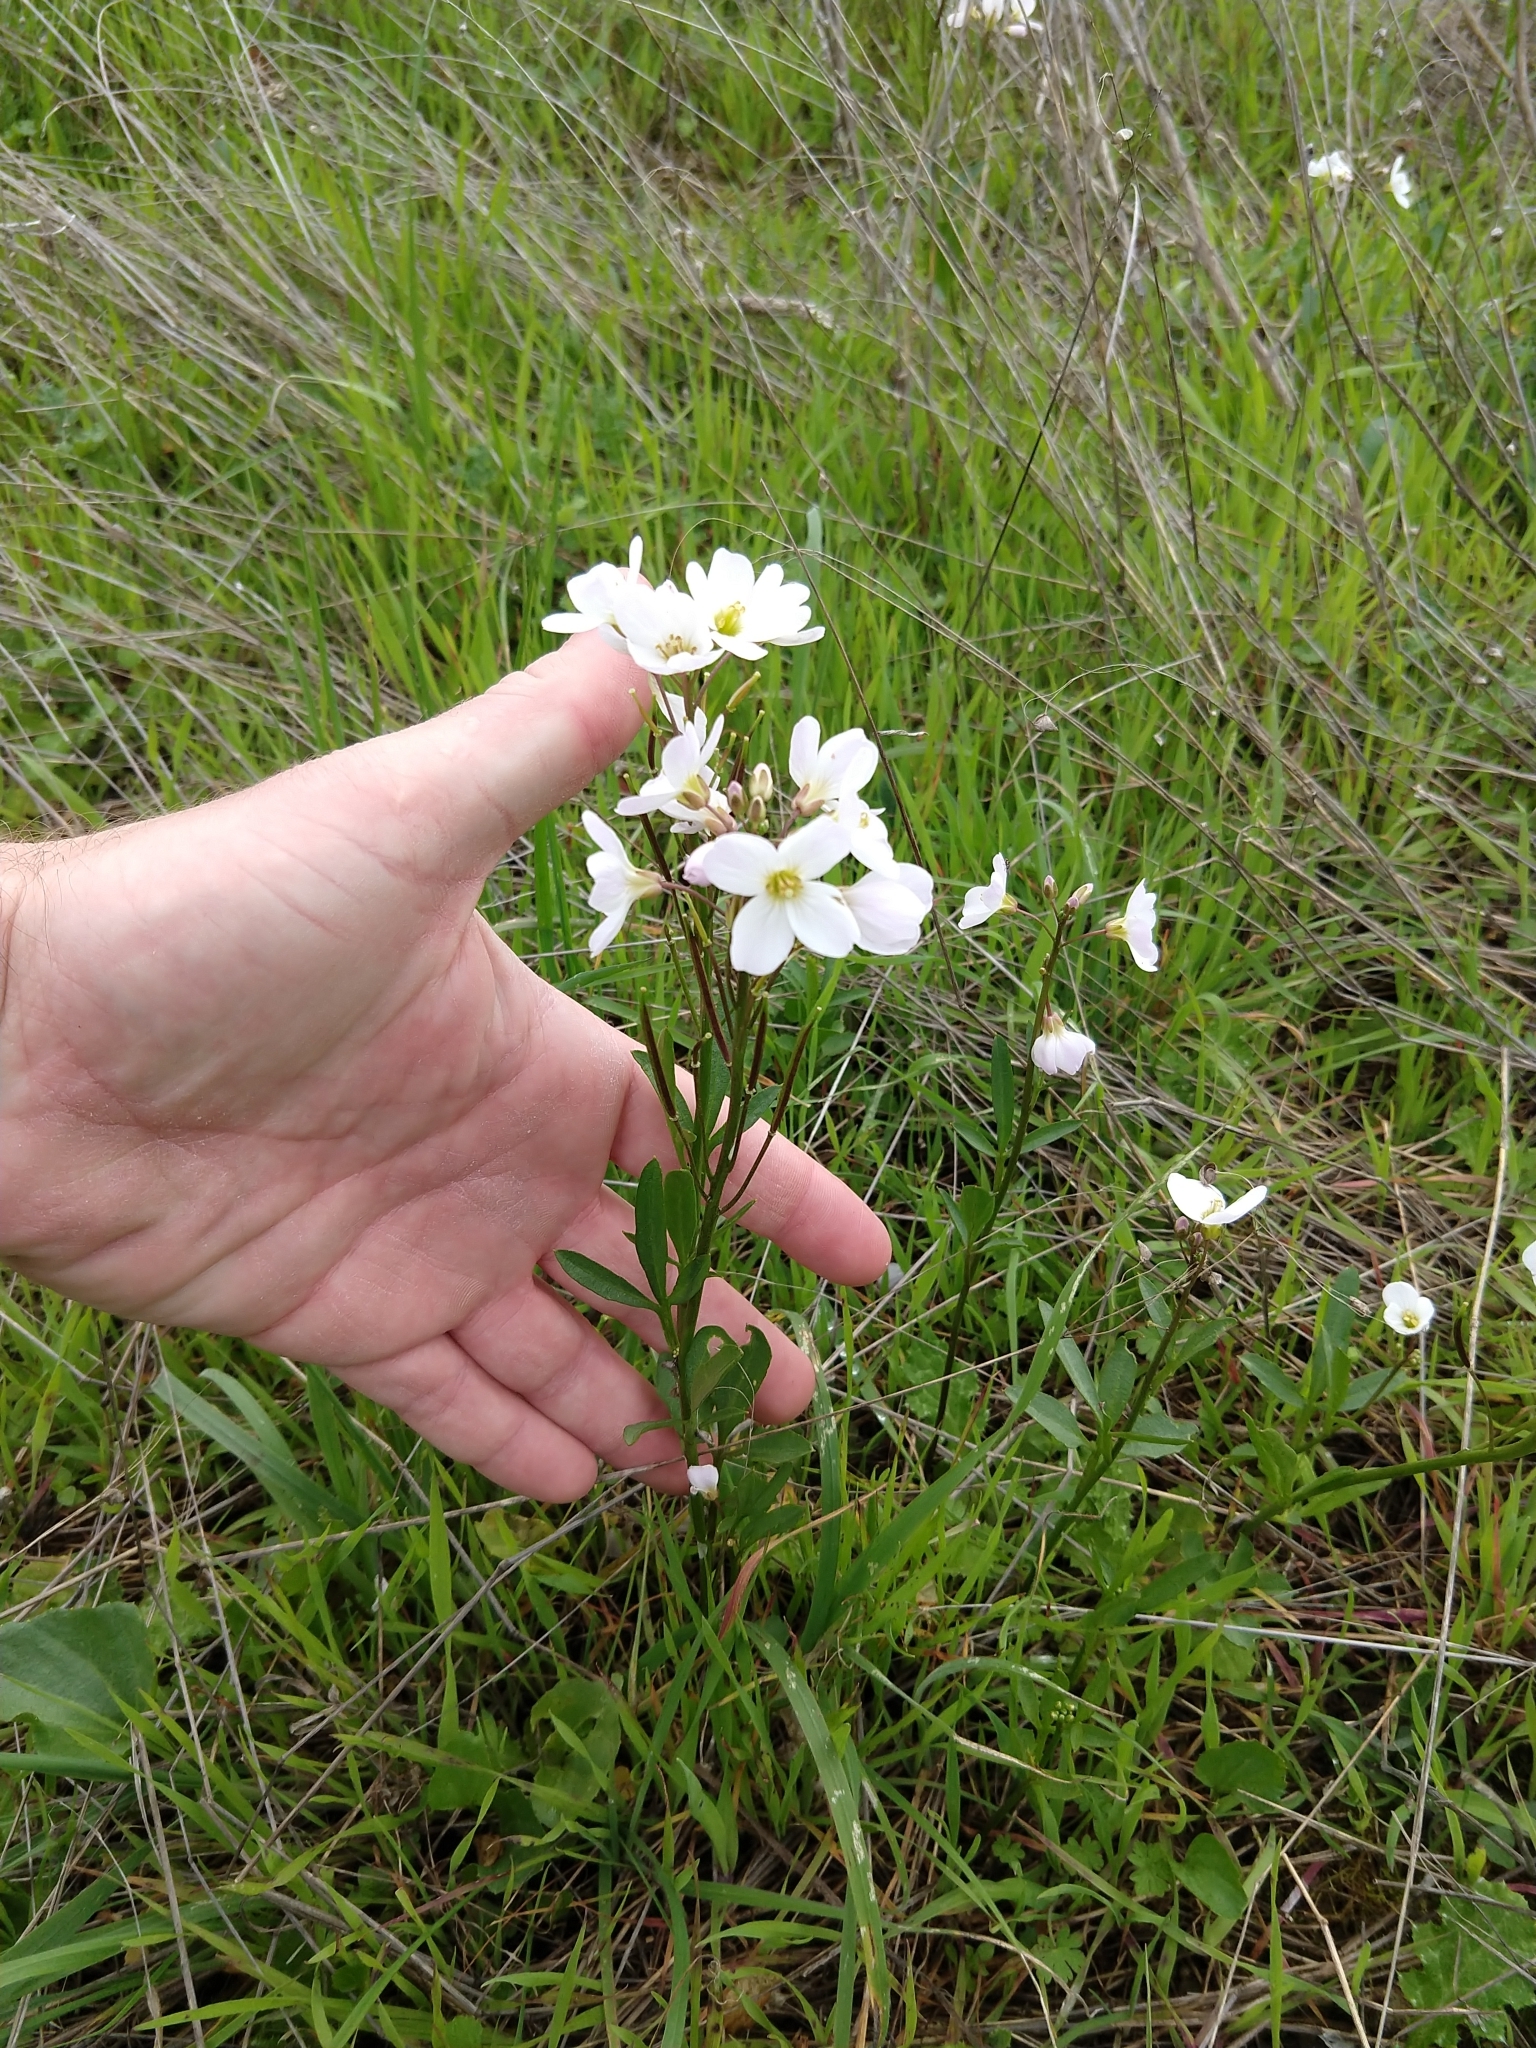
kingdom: Plantae
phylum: Tracheophyta
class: Magnoliopsida
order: Brassicales
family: Brassicaceae
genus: Cardamine
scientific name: Cardamine californica
